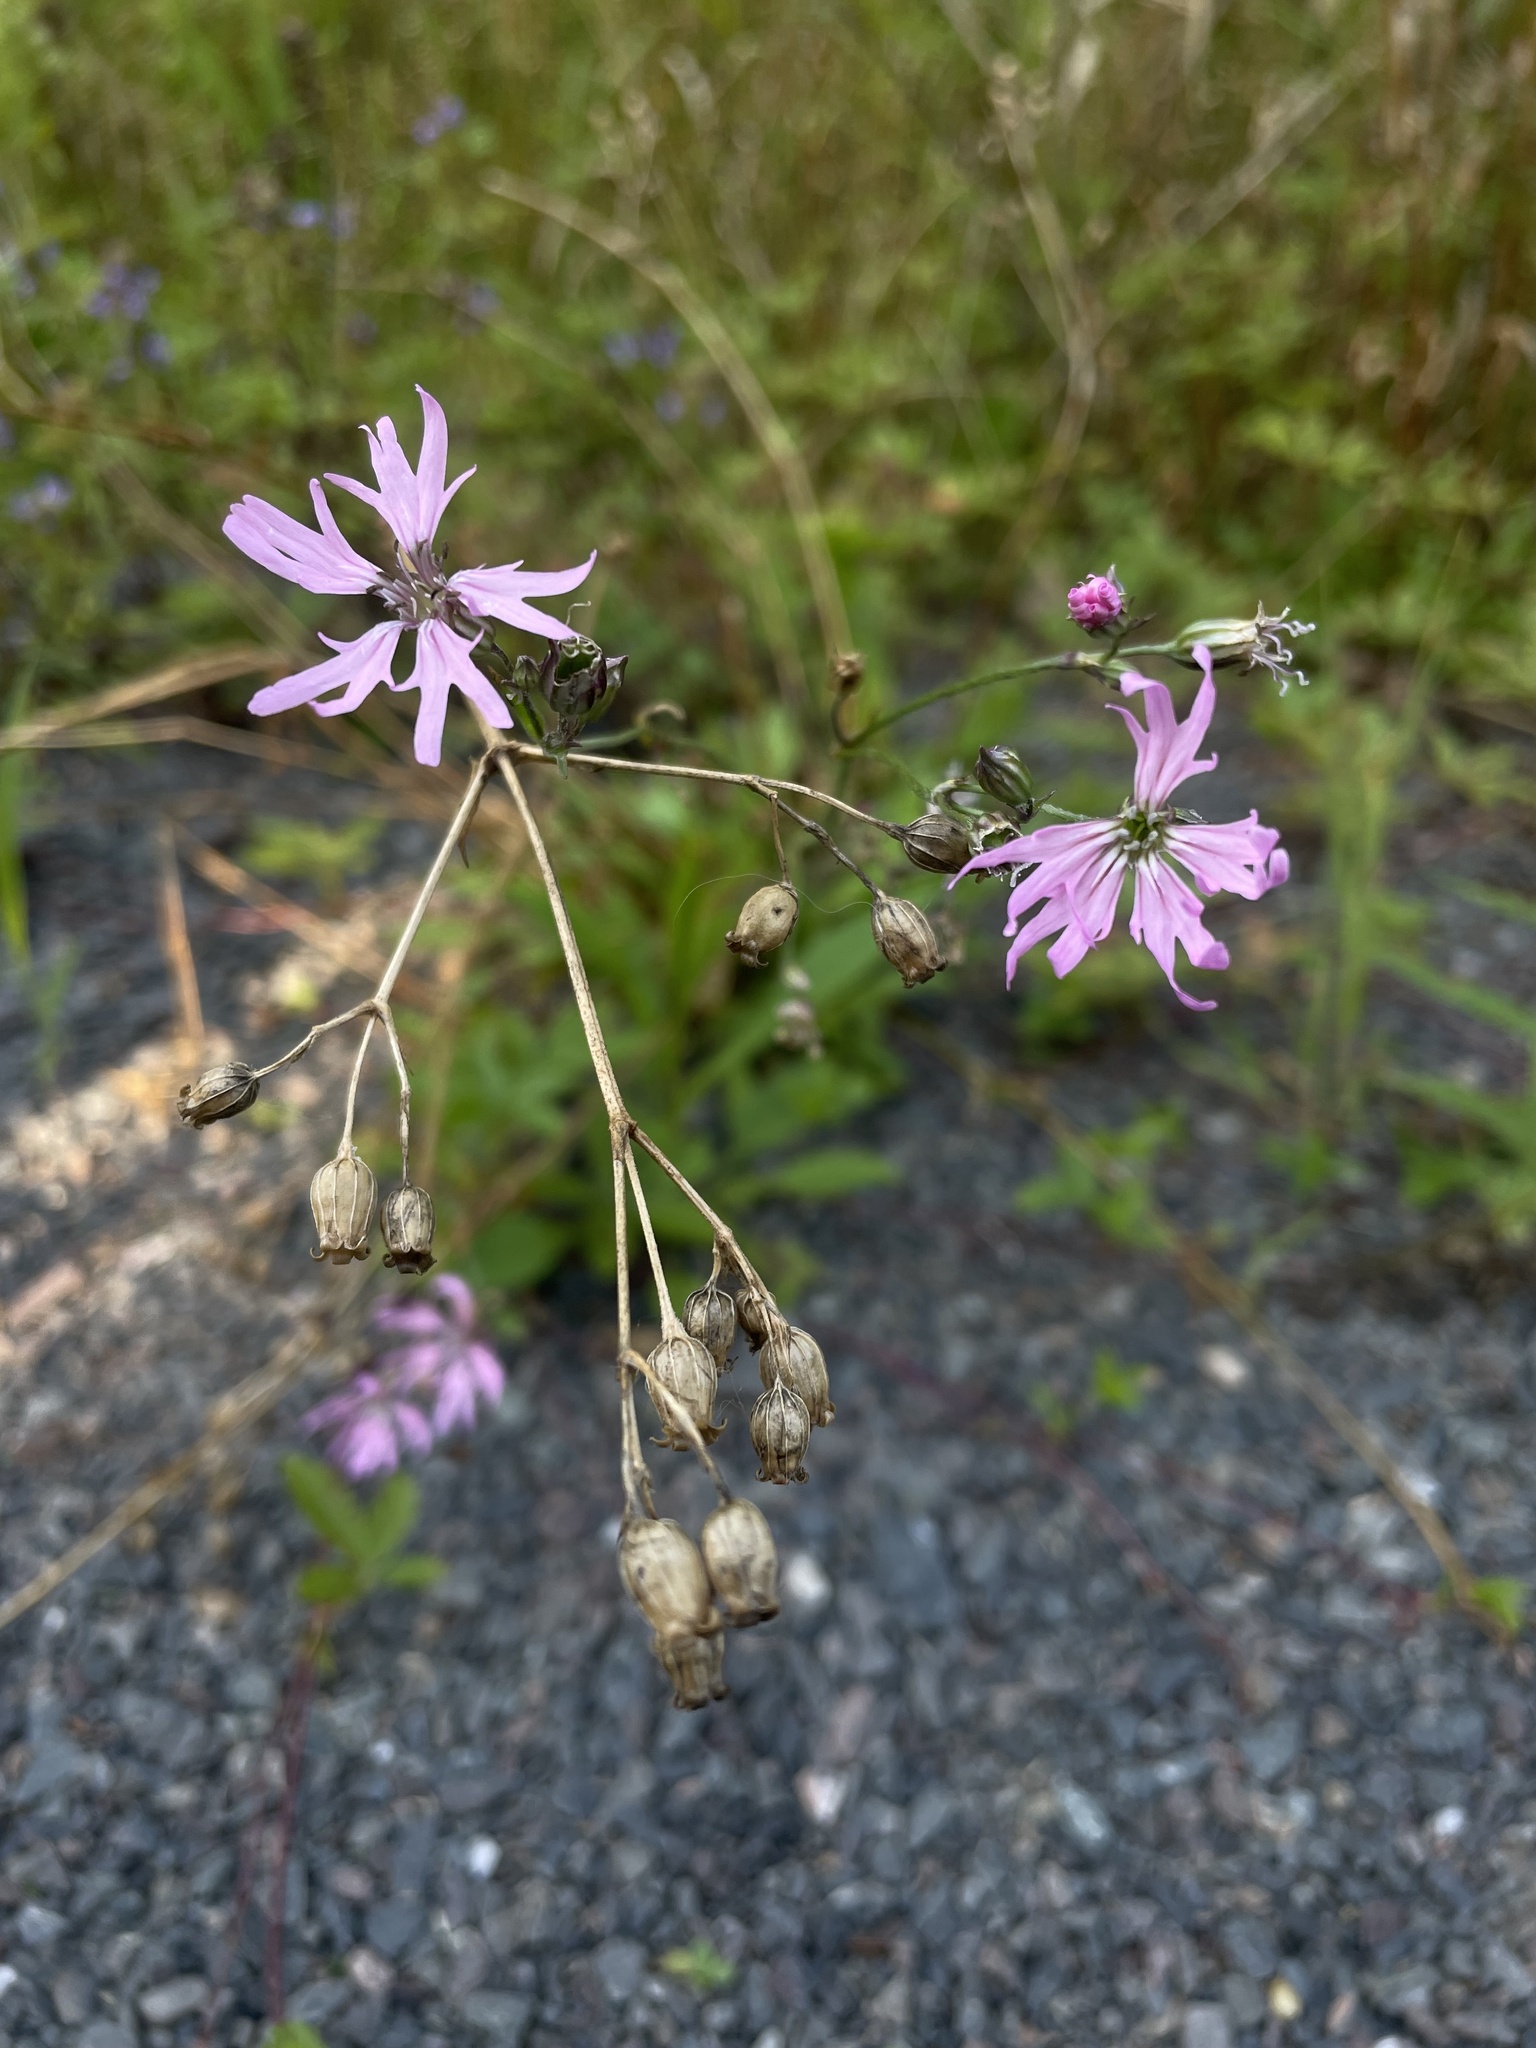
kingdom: Plantae
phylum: Tracheophyta
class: Magnoliopsida
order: Caryophyllales
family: Caryophyllaceae
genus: Silene
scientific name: Silene flos-cuculi
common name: Ragged-robin
